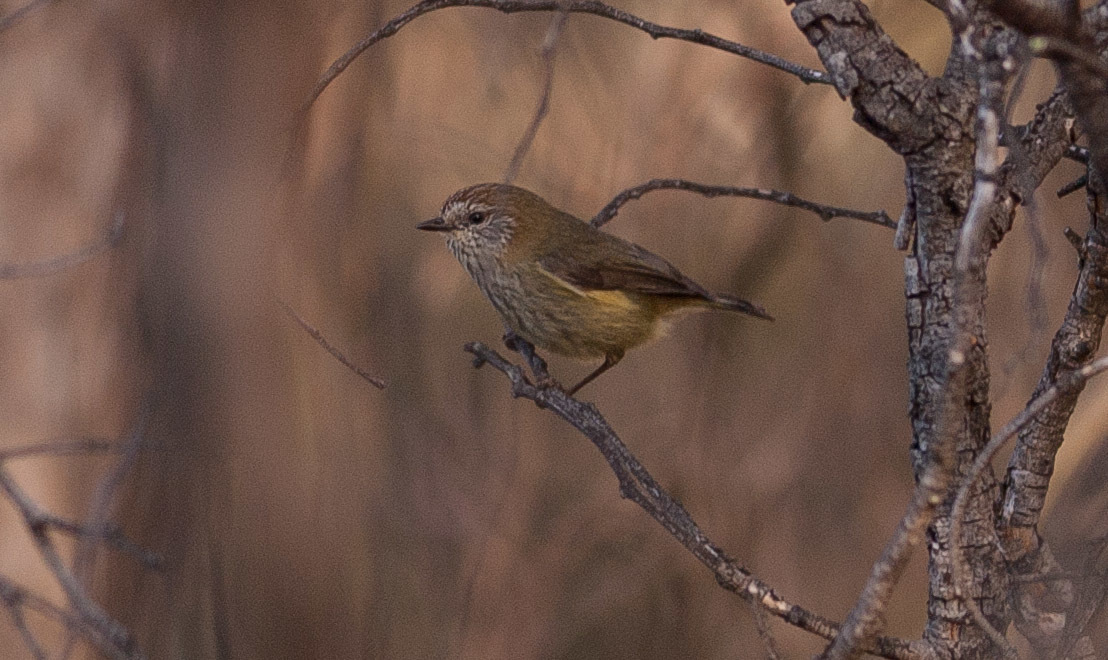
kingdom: Animalia
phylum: Chordata
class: Aves
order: Passeriformes
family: Acanthizidae
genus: Acanthiza
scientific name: Acanthiza lineata
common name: Striated thornbill
